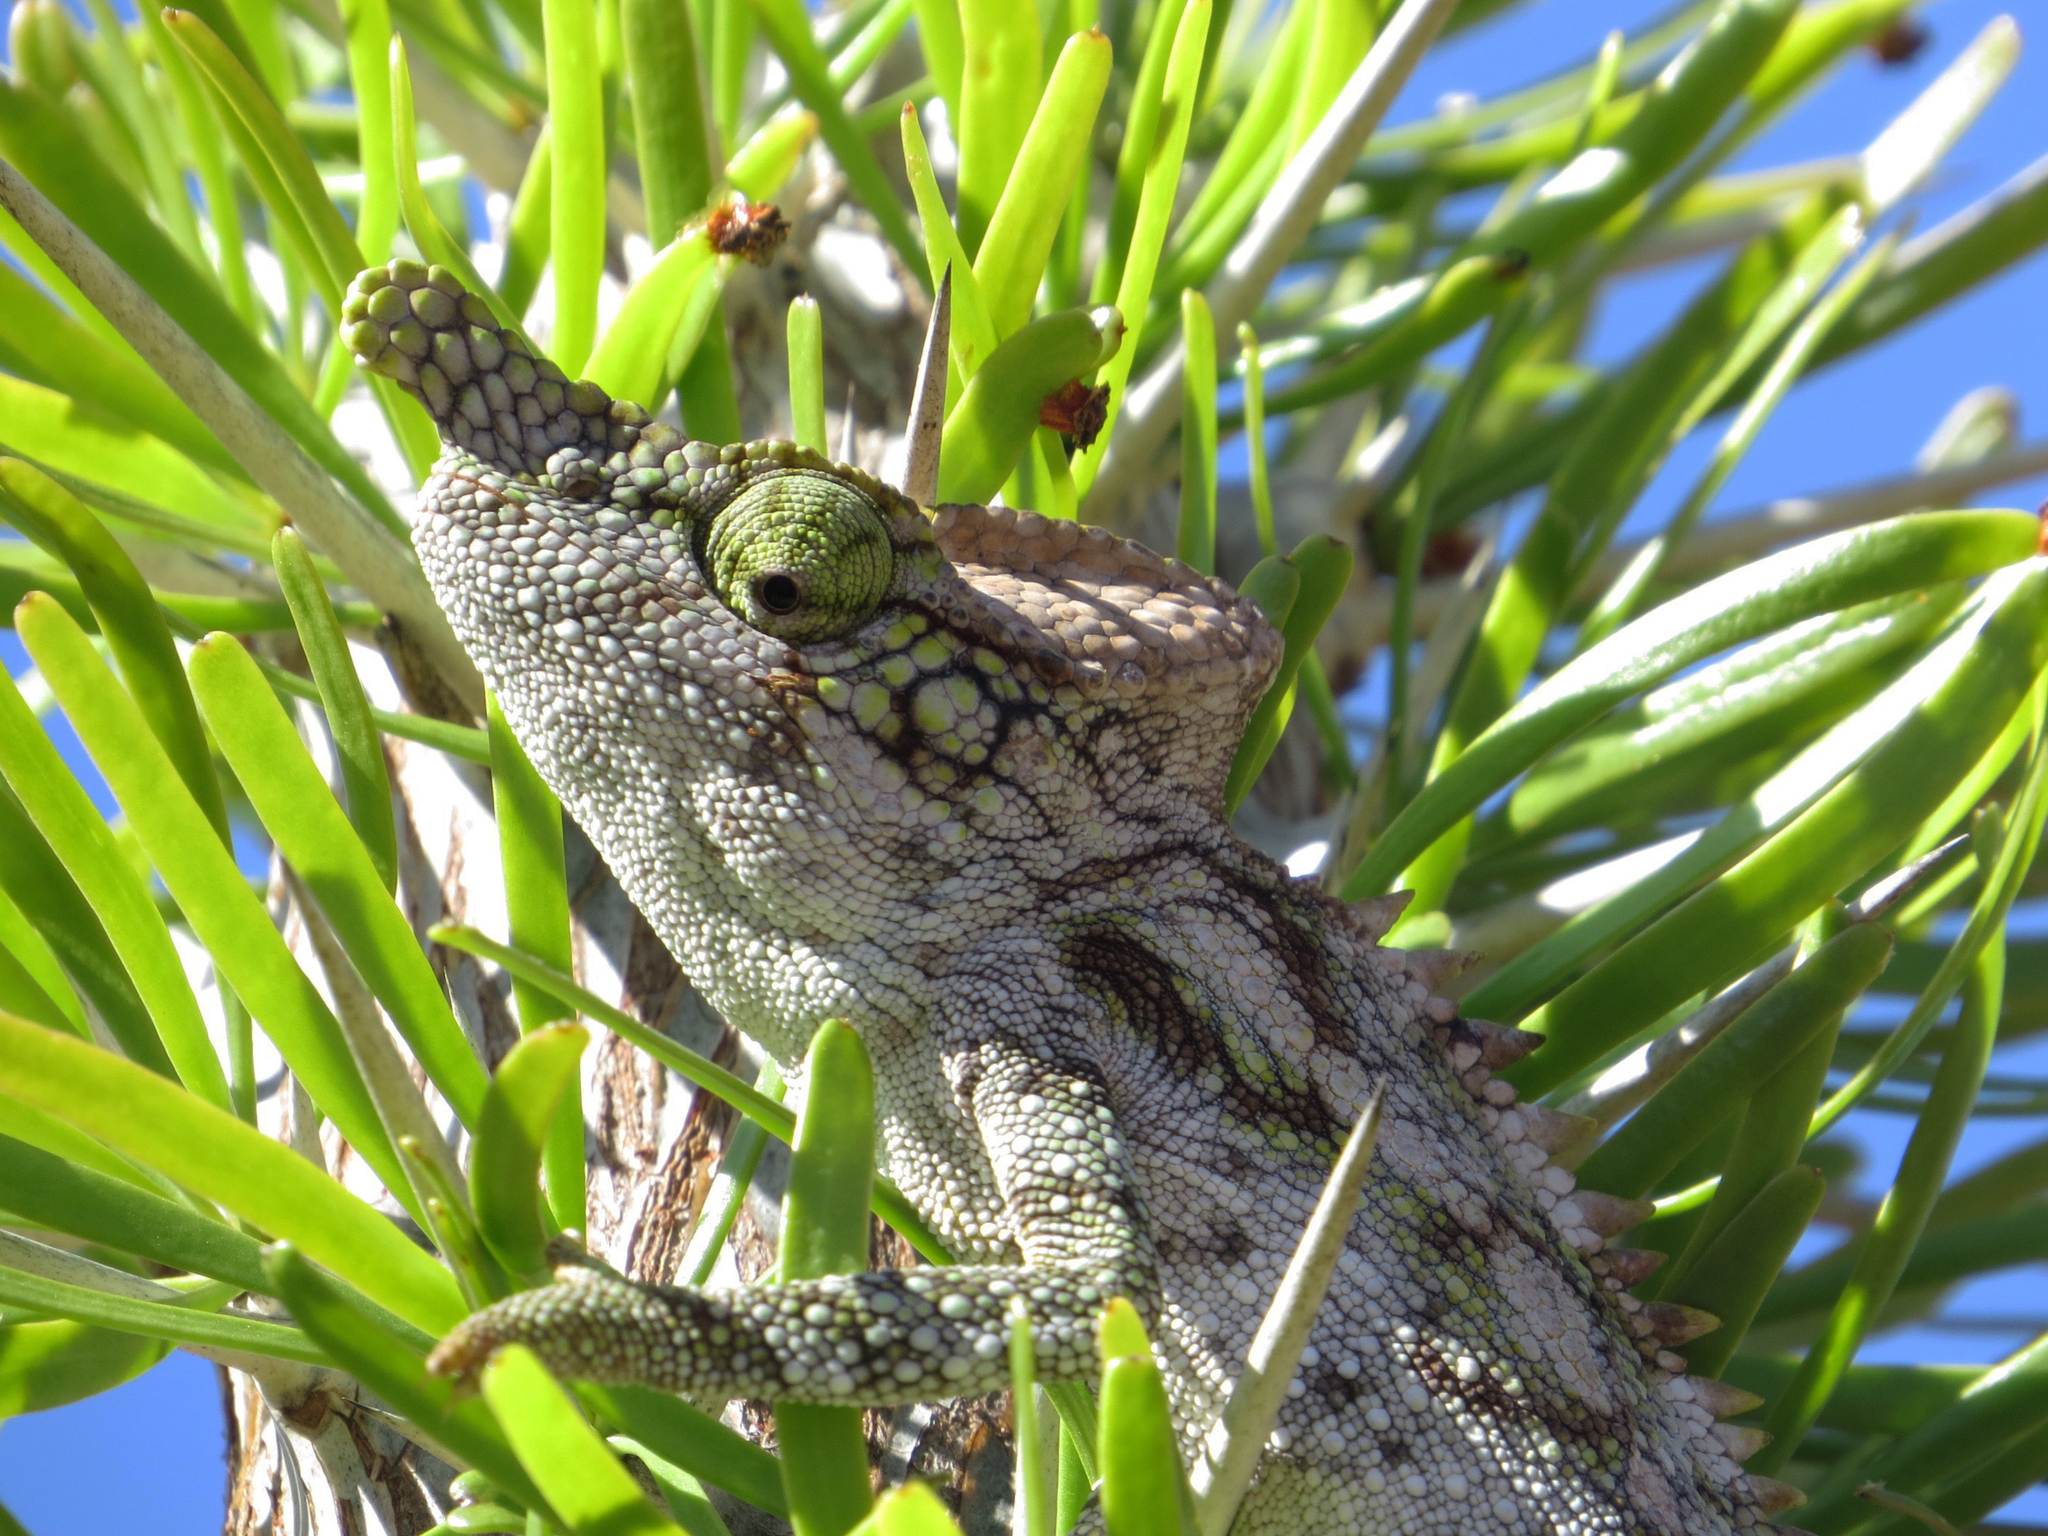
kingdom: Animalia
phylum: Chordata
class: Squamata
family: Chamaeleonidae
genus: Furcifer
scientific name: Furcifer antimena
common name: Antimena chameleon
